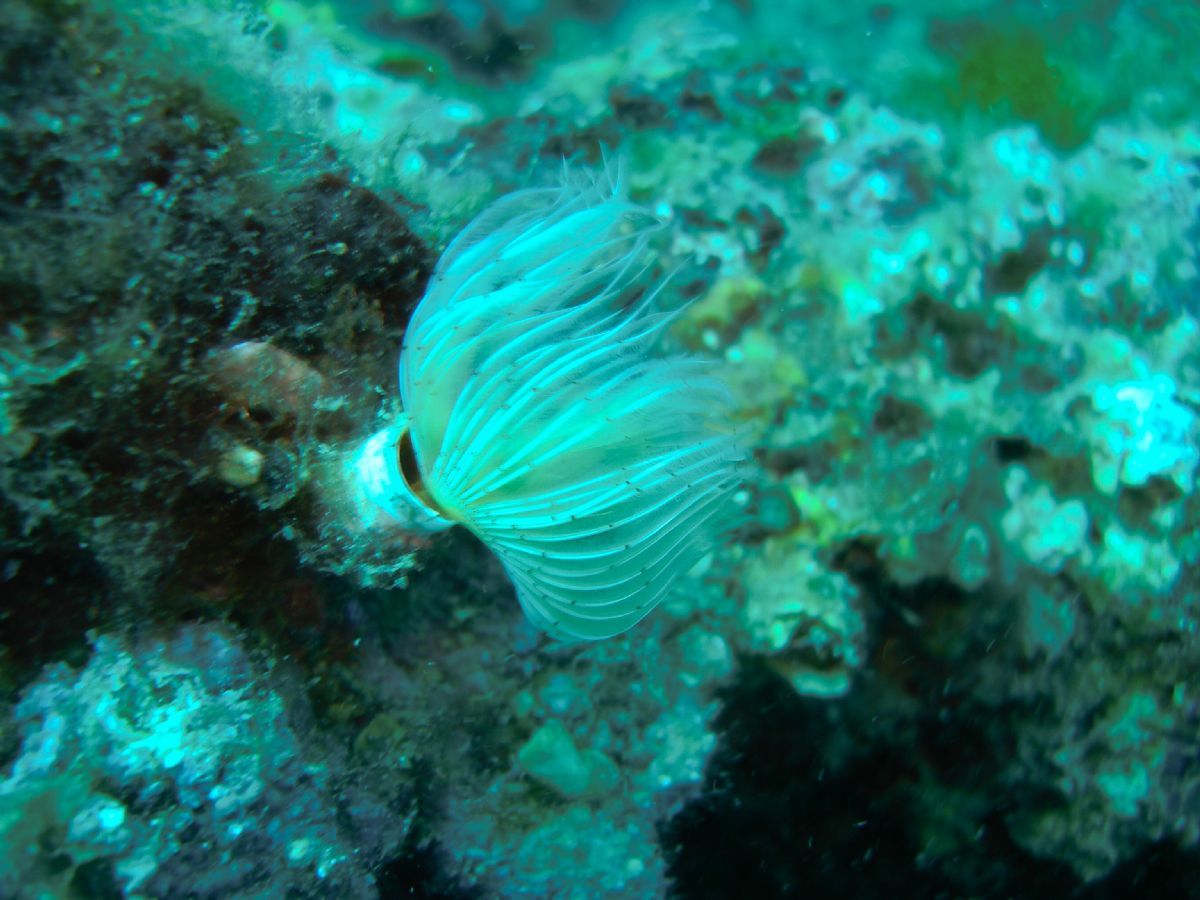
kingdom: Animalia
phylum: Annelida
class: Polychaeta
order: Sabellida
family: Serpulidae
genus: Protula
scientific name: Protula tubularia
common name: Red-spotted horseshoe
